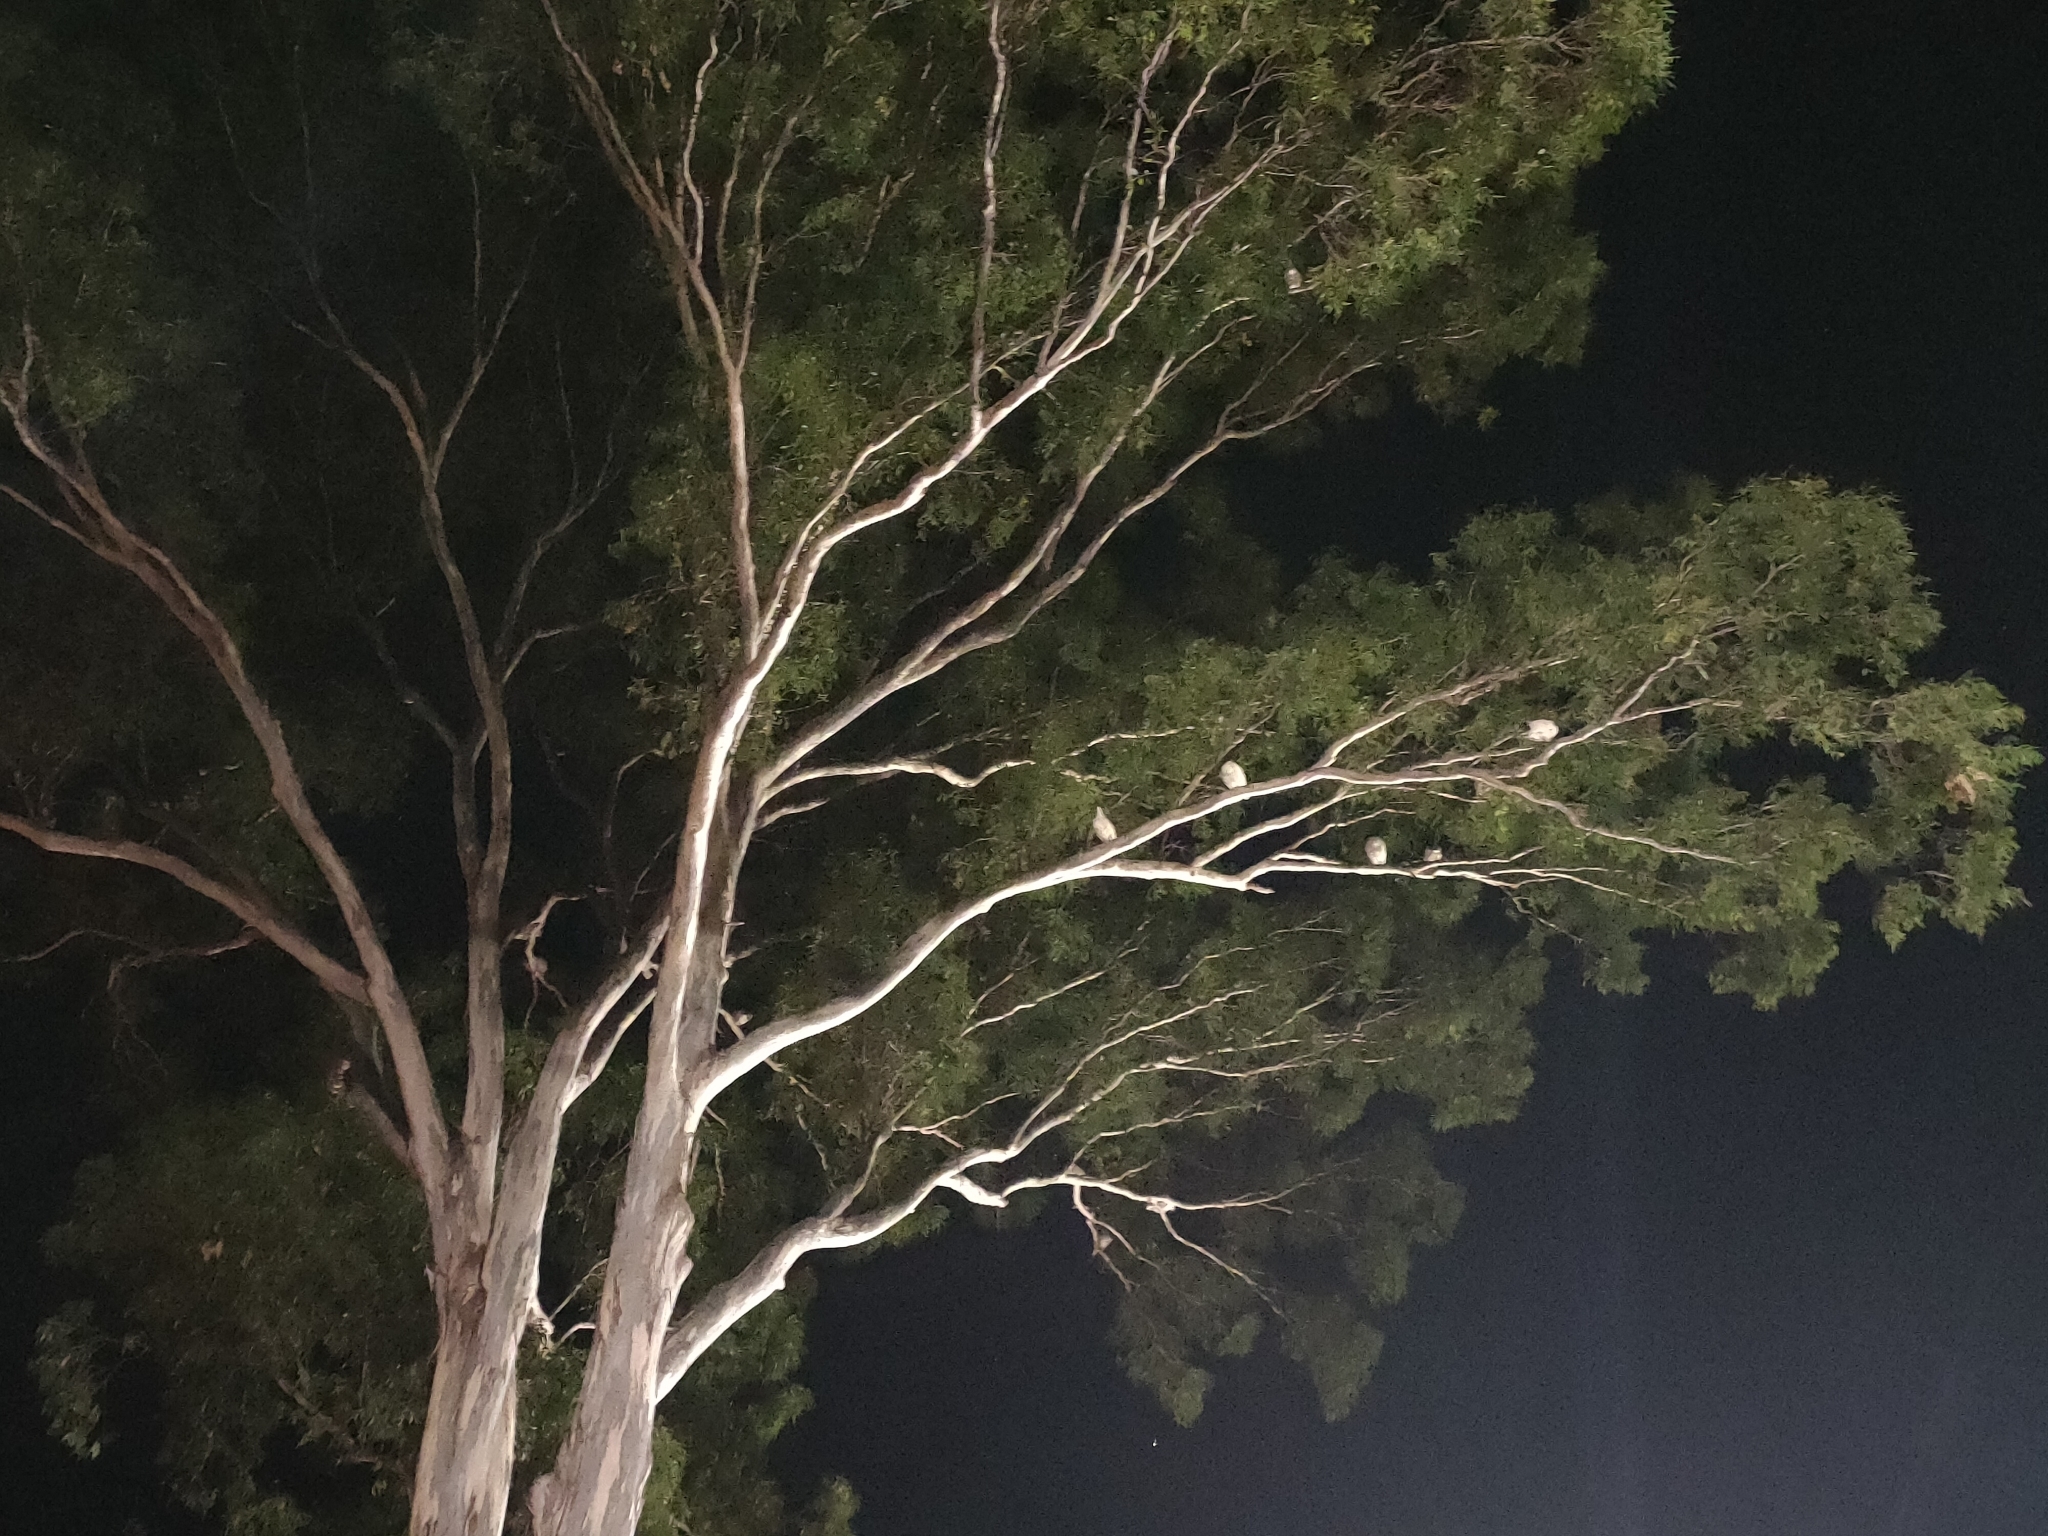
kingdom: Animalia
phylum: Chordata
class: Aves
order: Pelecaniformes
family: Threskiornithidae
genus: Threskiornis
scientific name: Threskiornis molucca
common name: Australian white ibis
